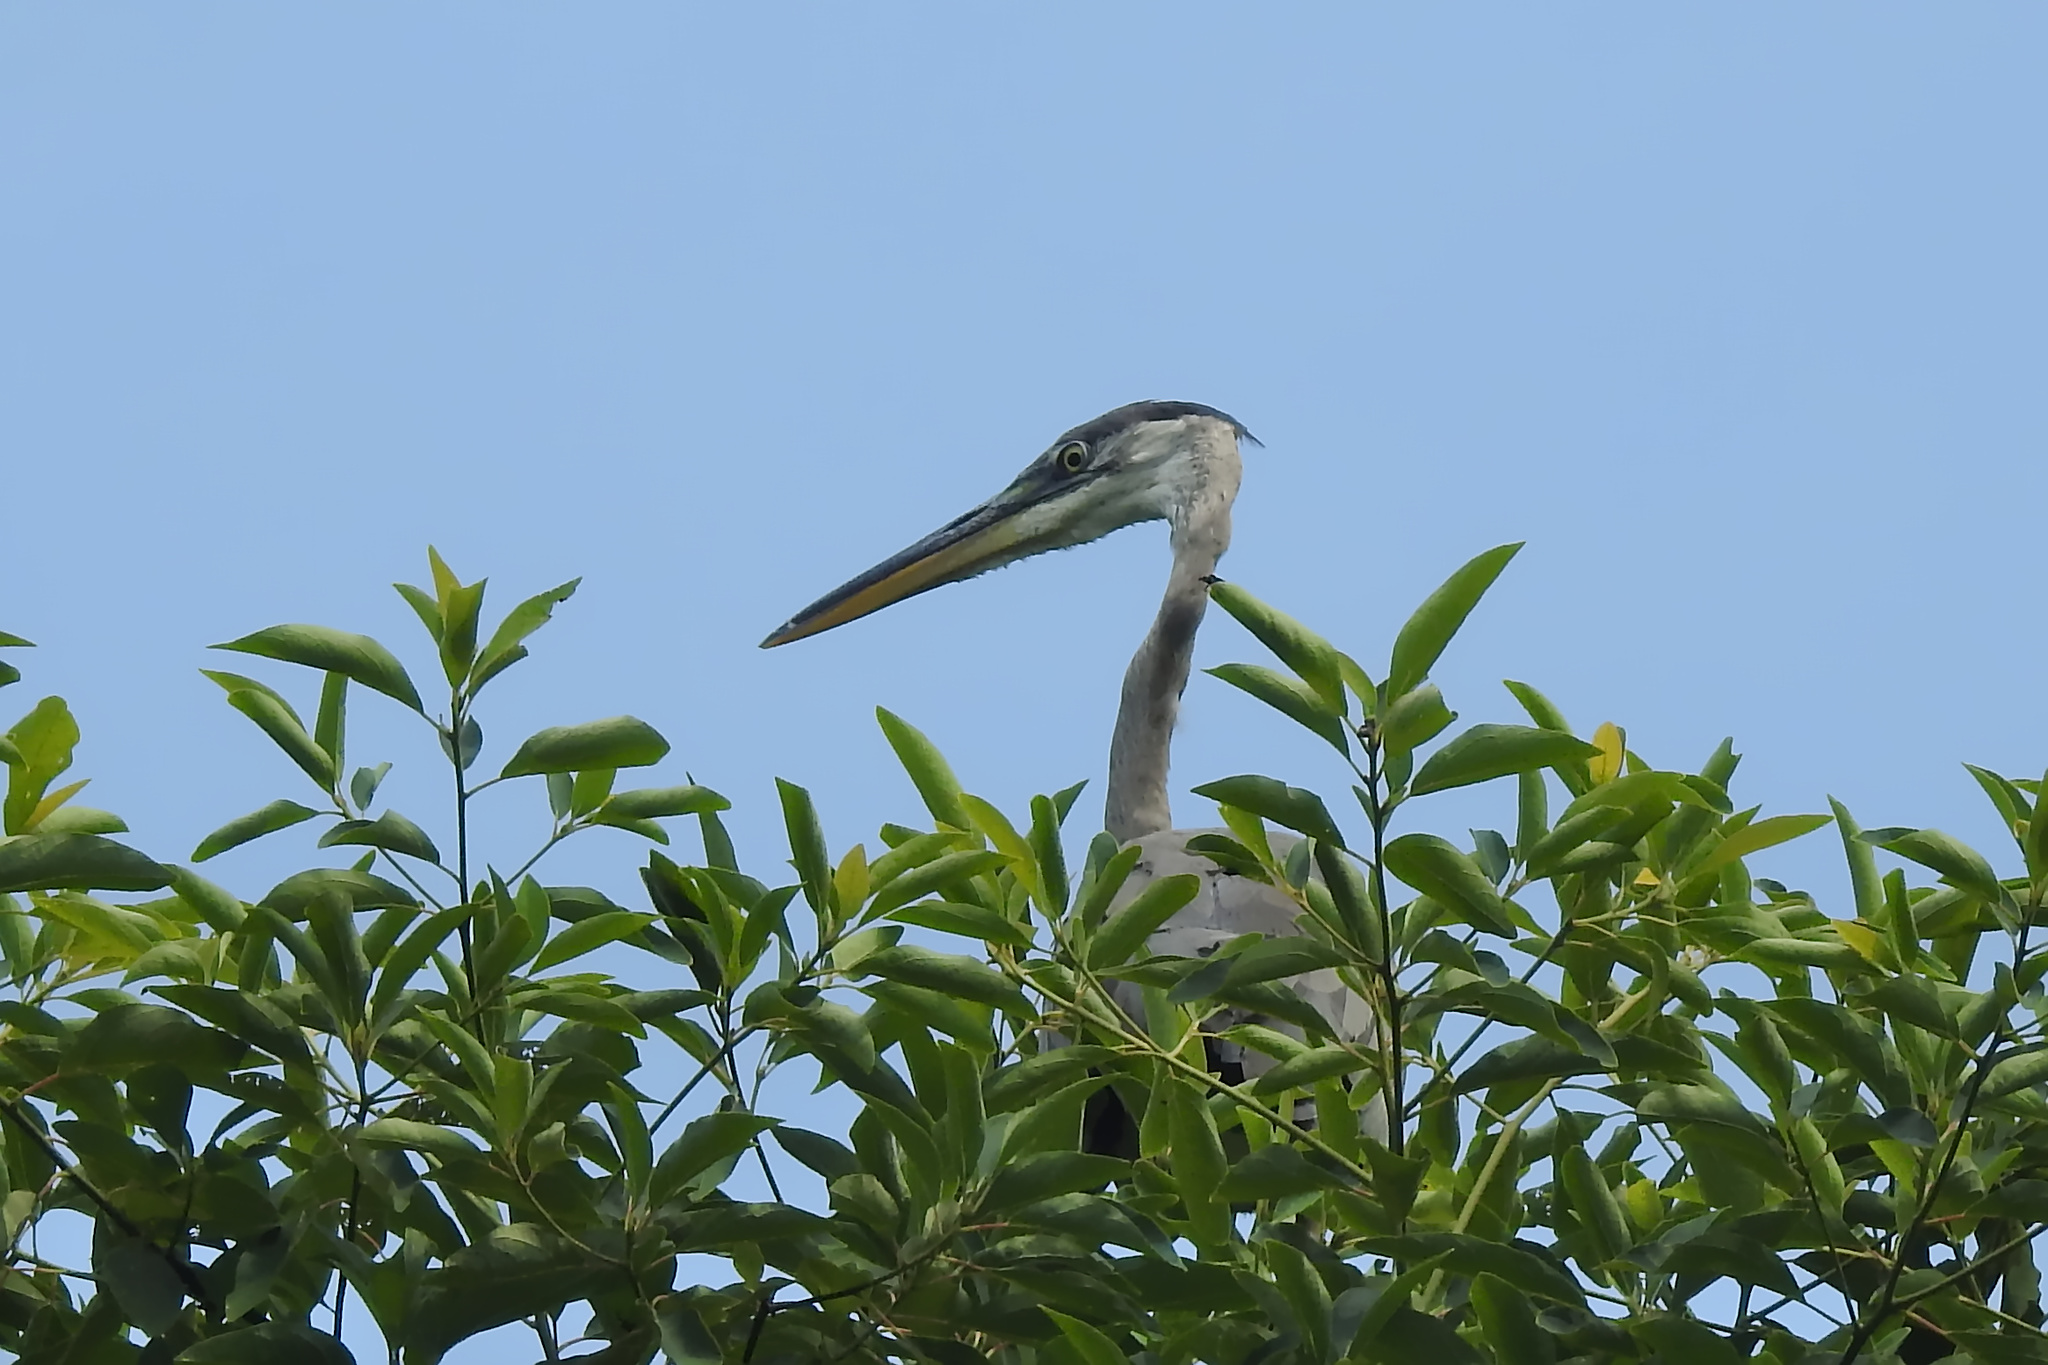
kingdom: Animalia
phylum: Chordata
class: Aves
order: Pelecaniformes
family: Ardeidae
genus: Ardea
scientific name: Ardea herodias
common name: Great blue heron
